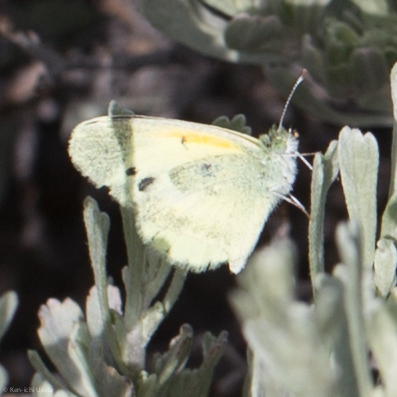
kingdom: Animalia
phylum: Arthropoda
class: Insecta
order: Lepidoptera
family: Pieridae
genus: Nathalis
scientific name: Nathalis iole
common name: Dainty sulphur
